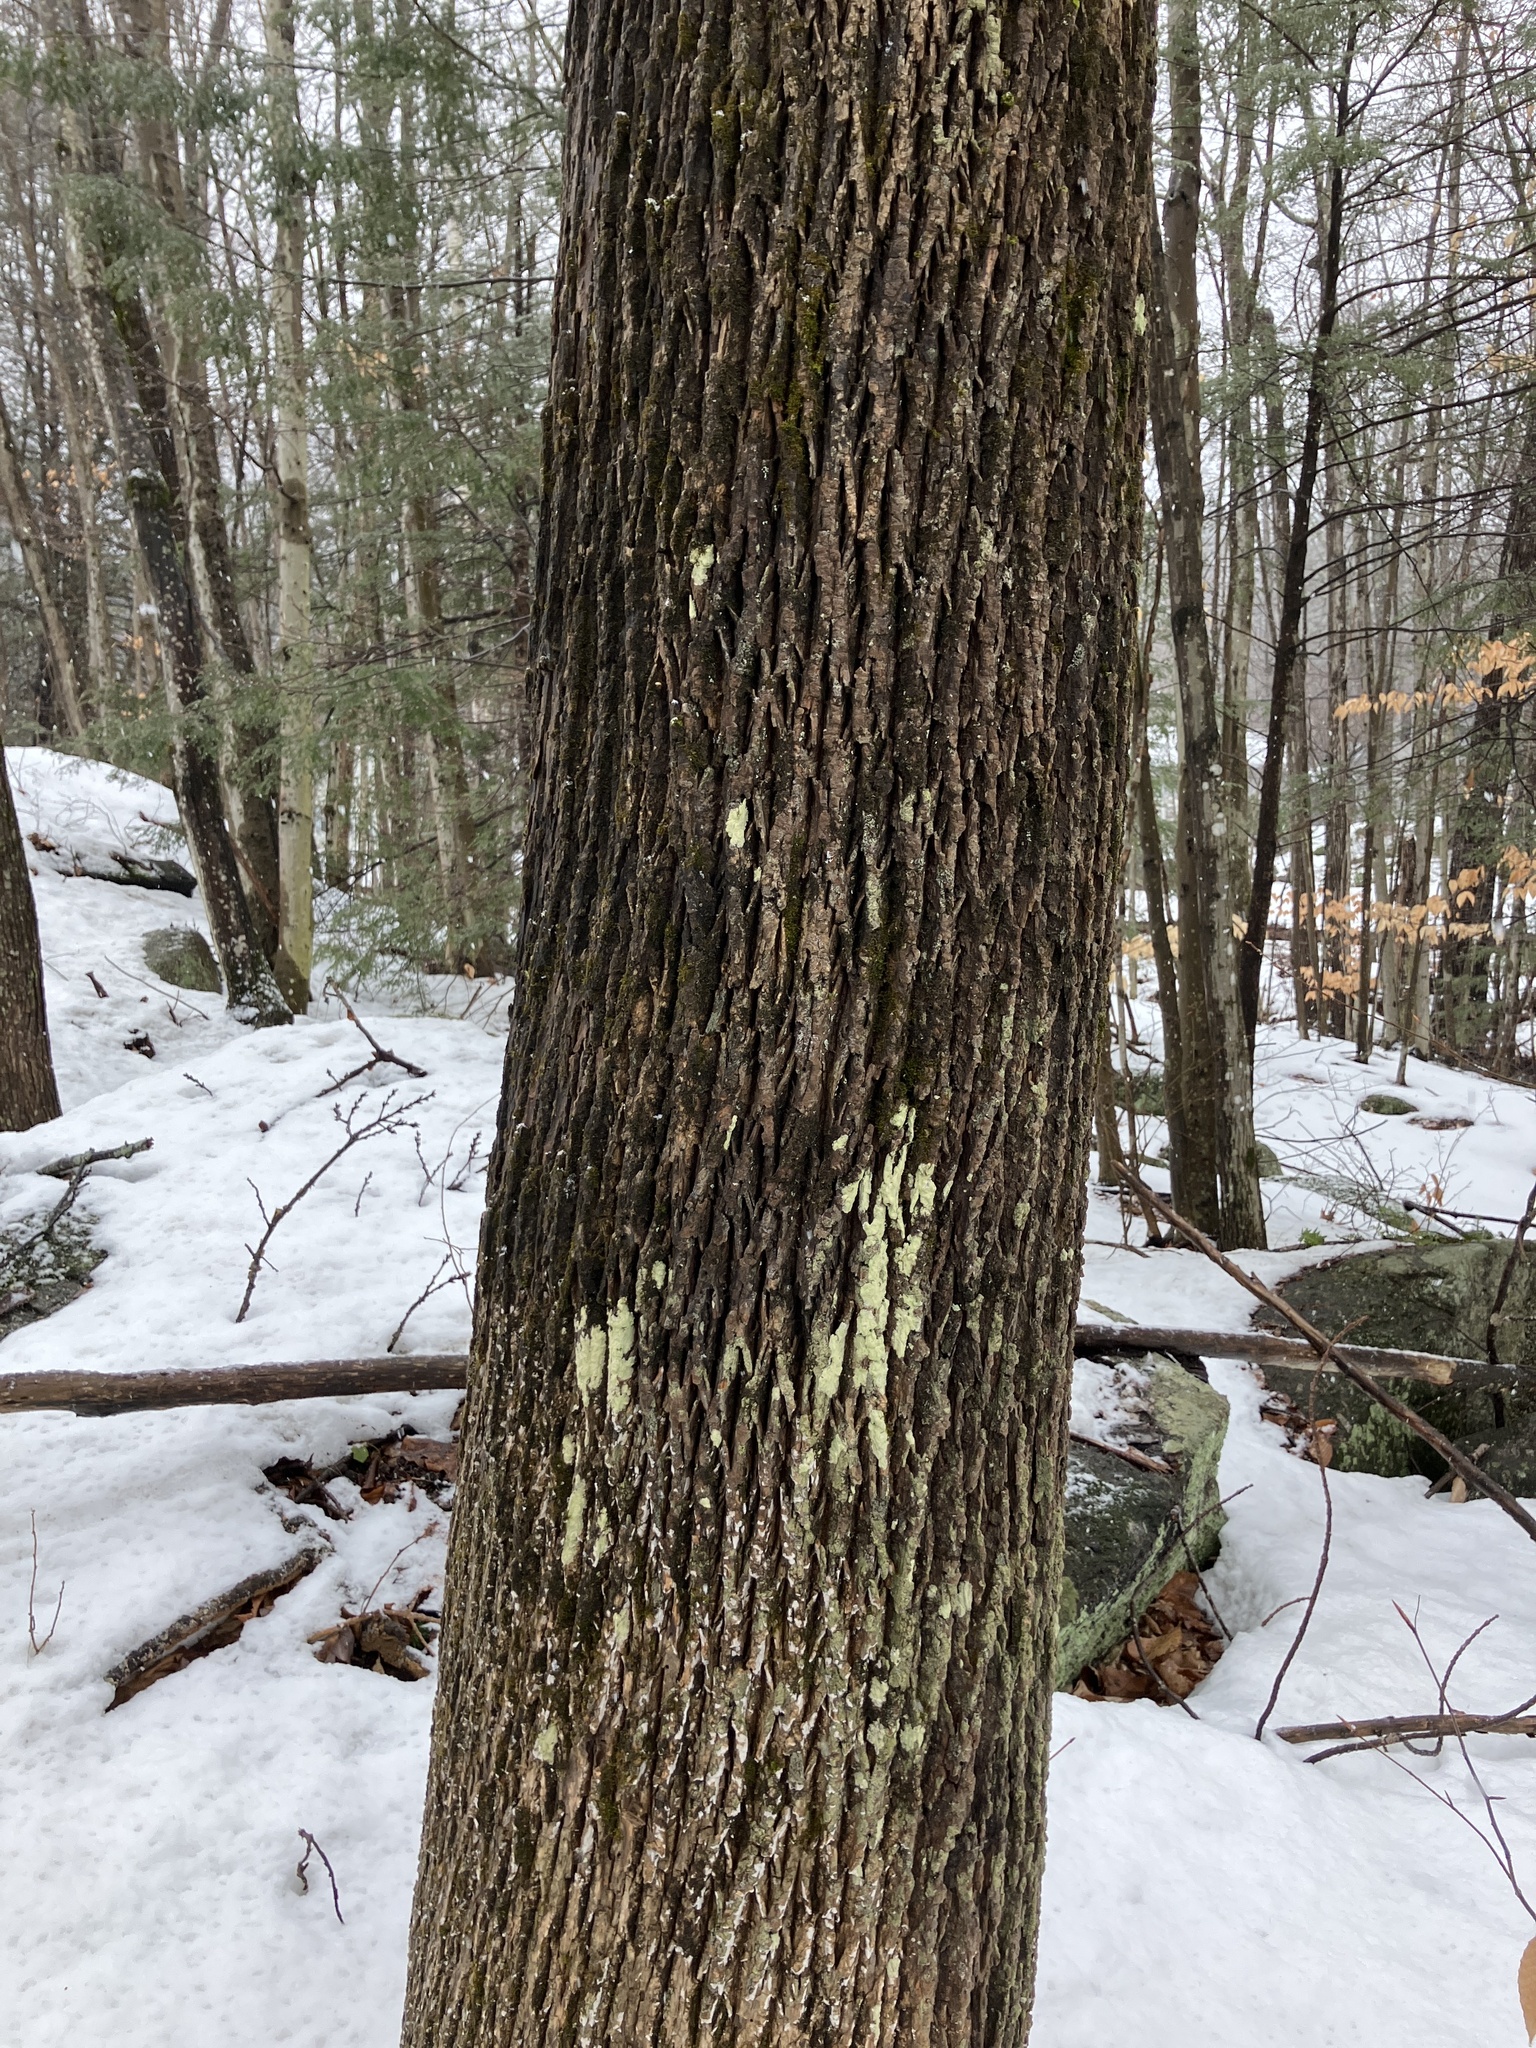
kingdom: Plantae
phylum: Tracheophyta
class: Magnoliopsida
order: Lamiales
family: Oleaceae
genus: Fraxinus
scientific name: Fraxinus americana
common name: White ash
